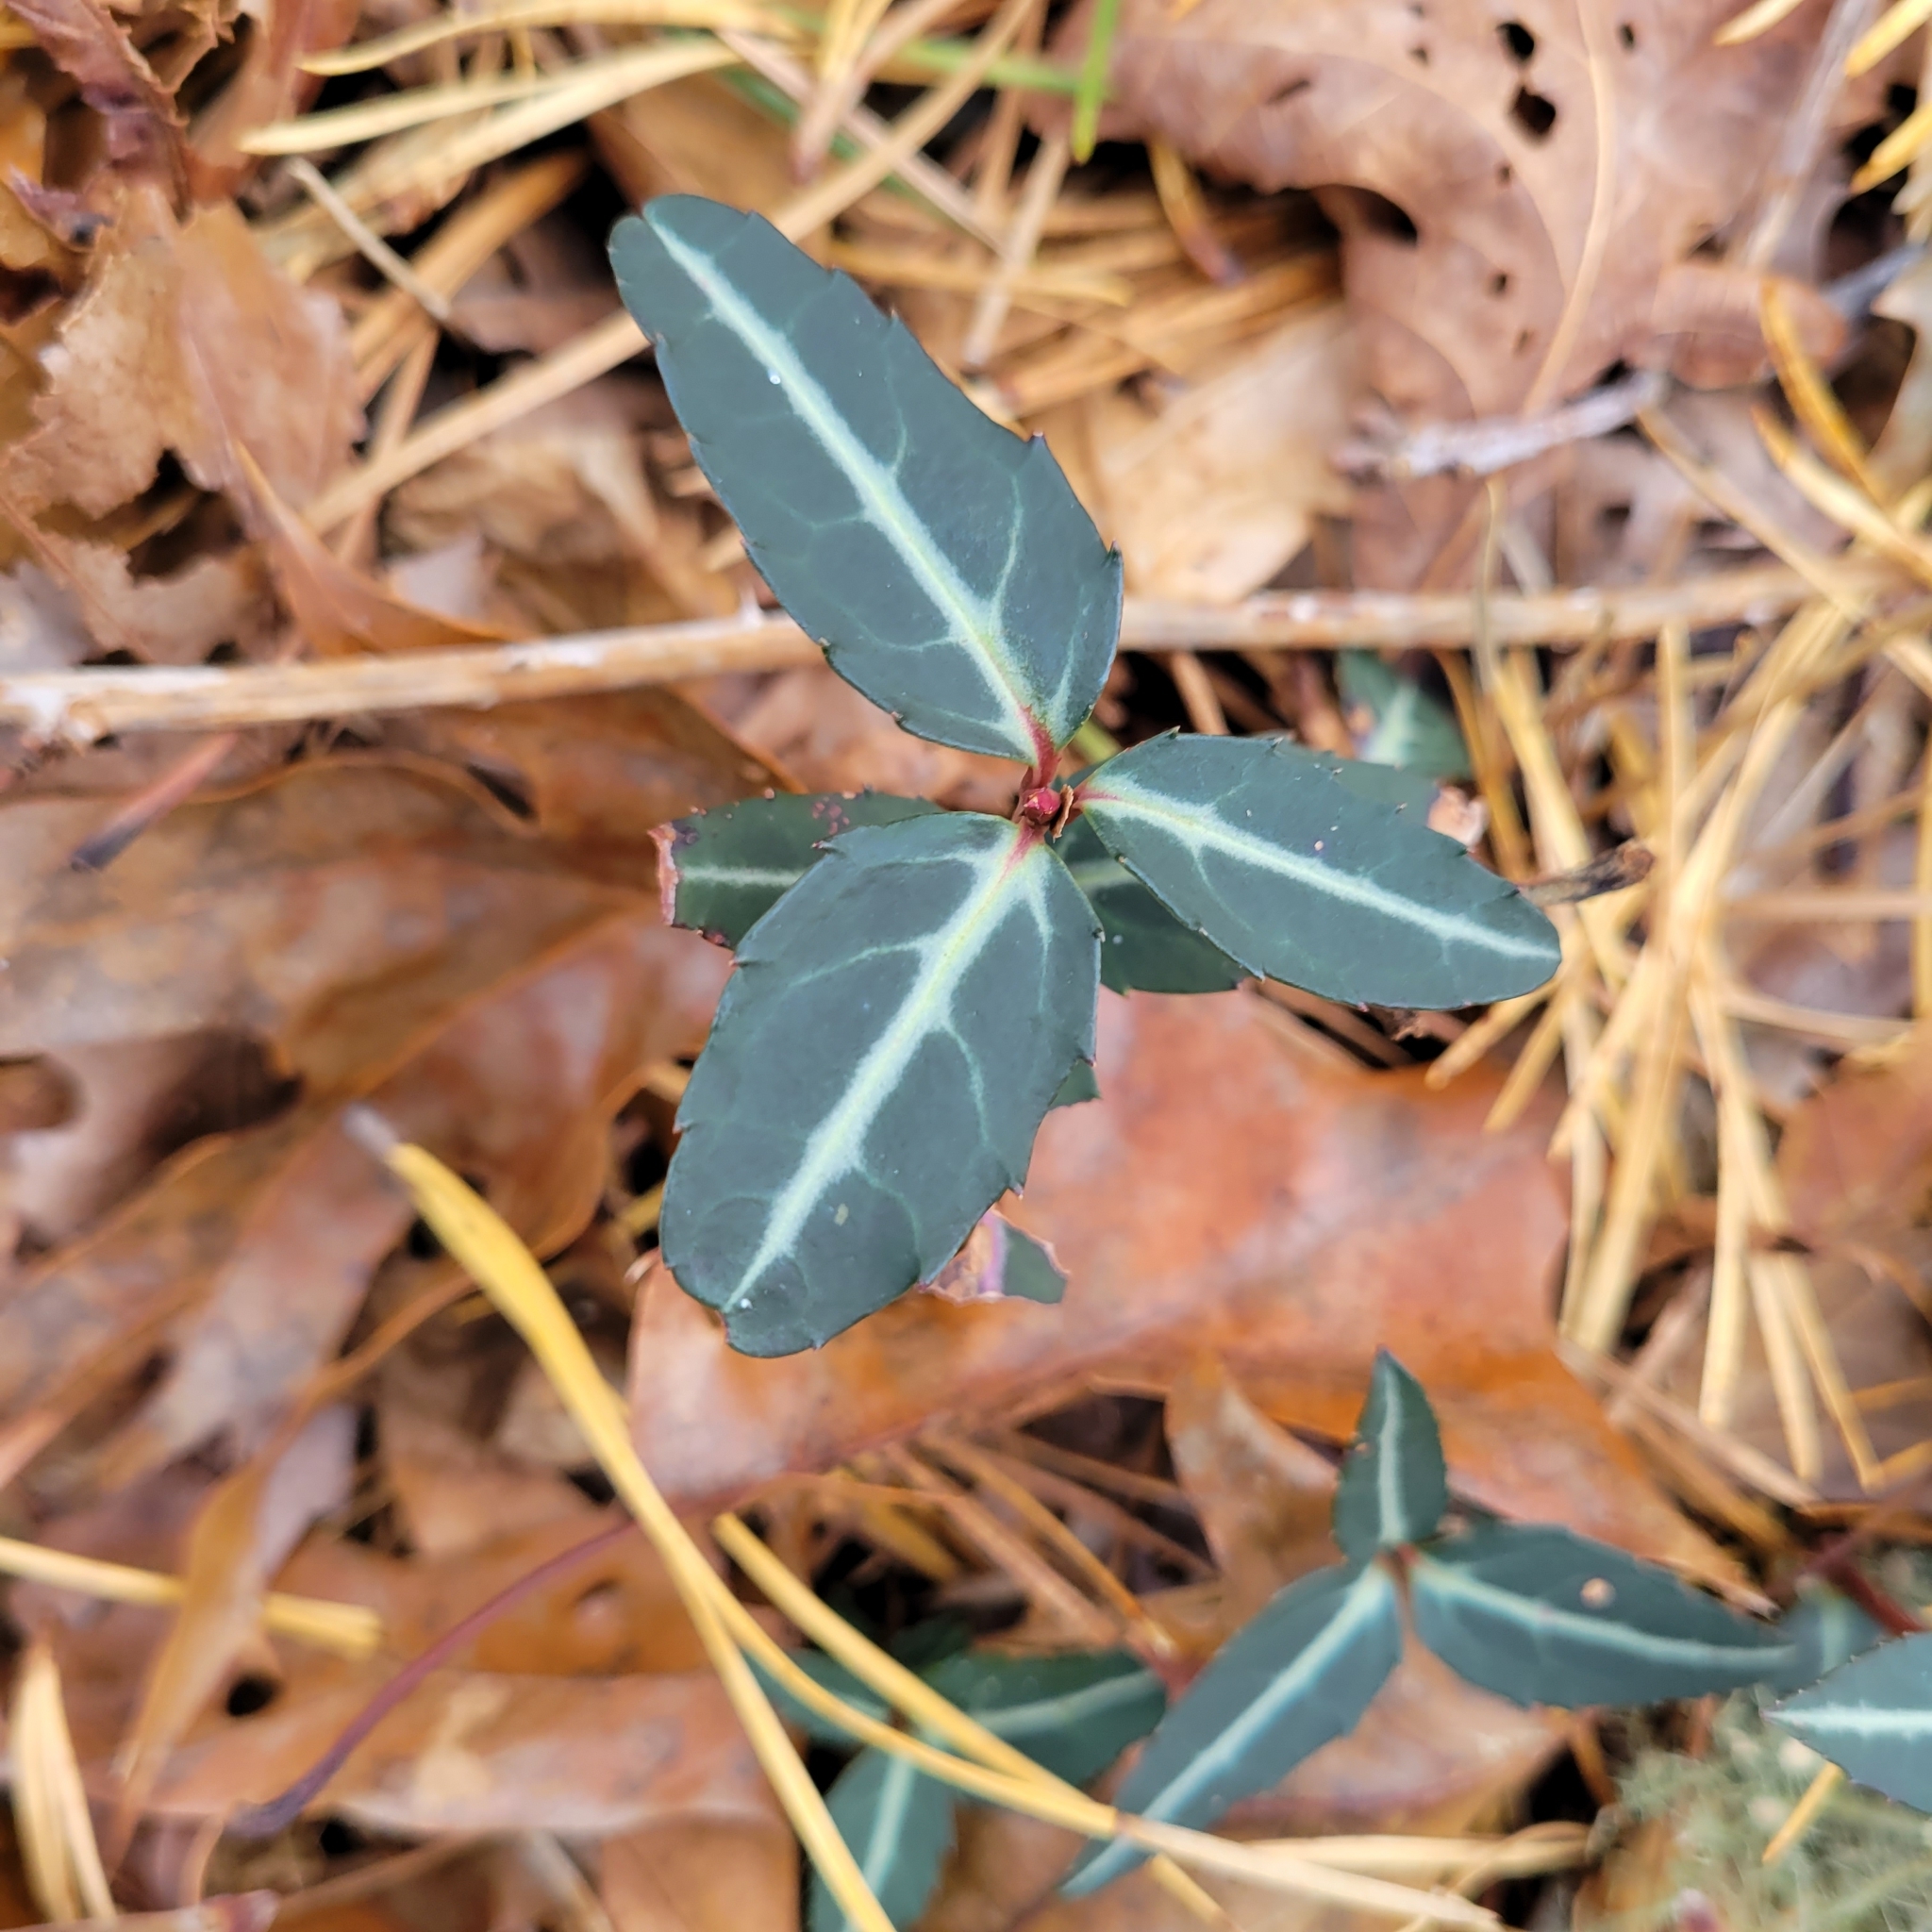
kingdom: Plantae
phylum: Tracheophyta
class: Magnoliopsida
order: Ericales
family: Ericaceae
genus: Chimaphila
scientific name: Chimaphila maculata
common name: Spotted pipsissewa
